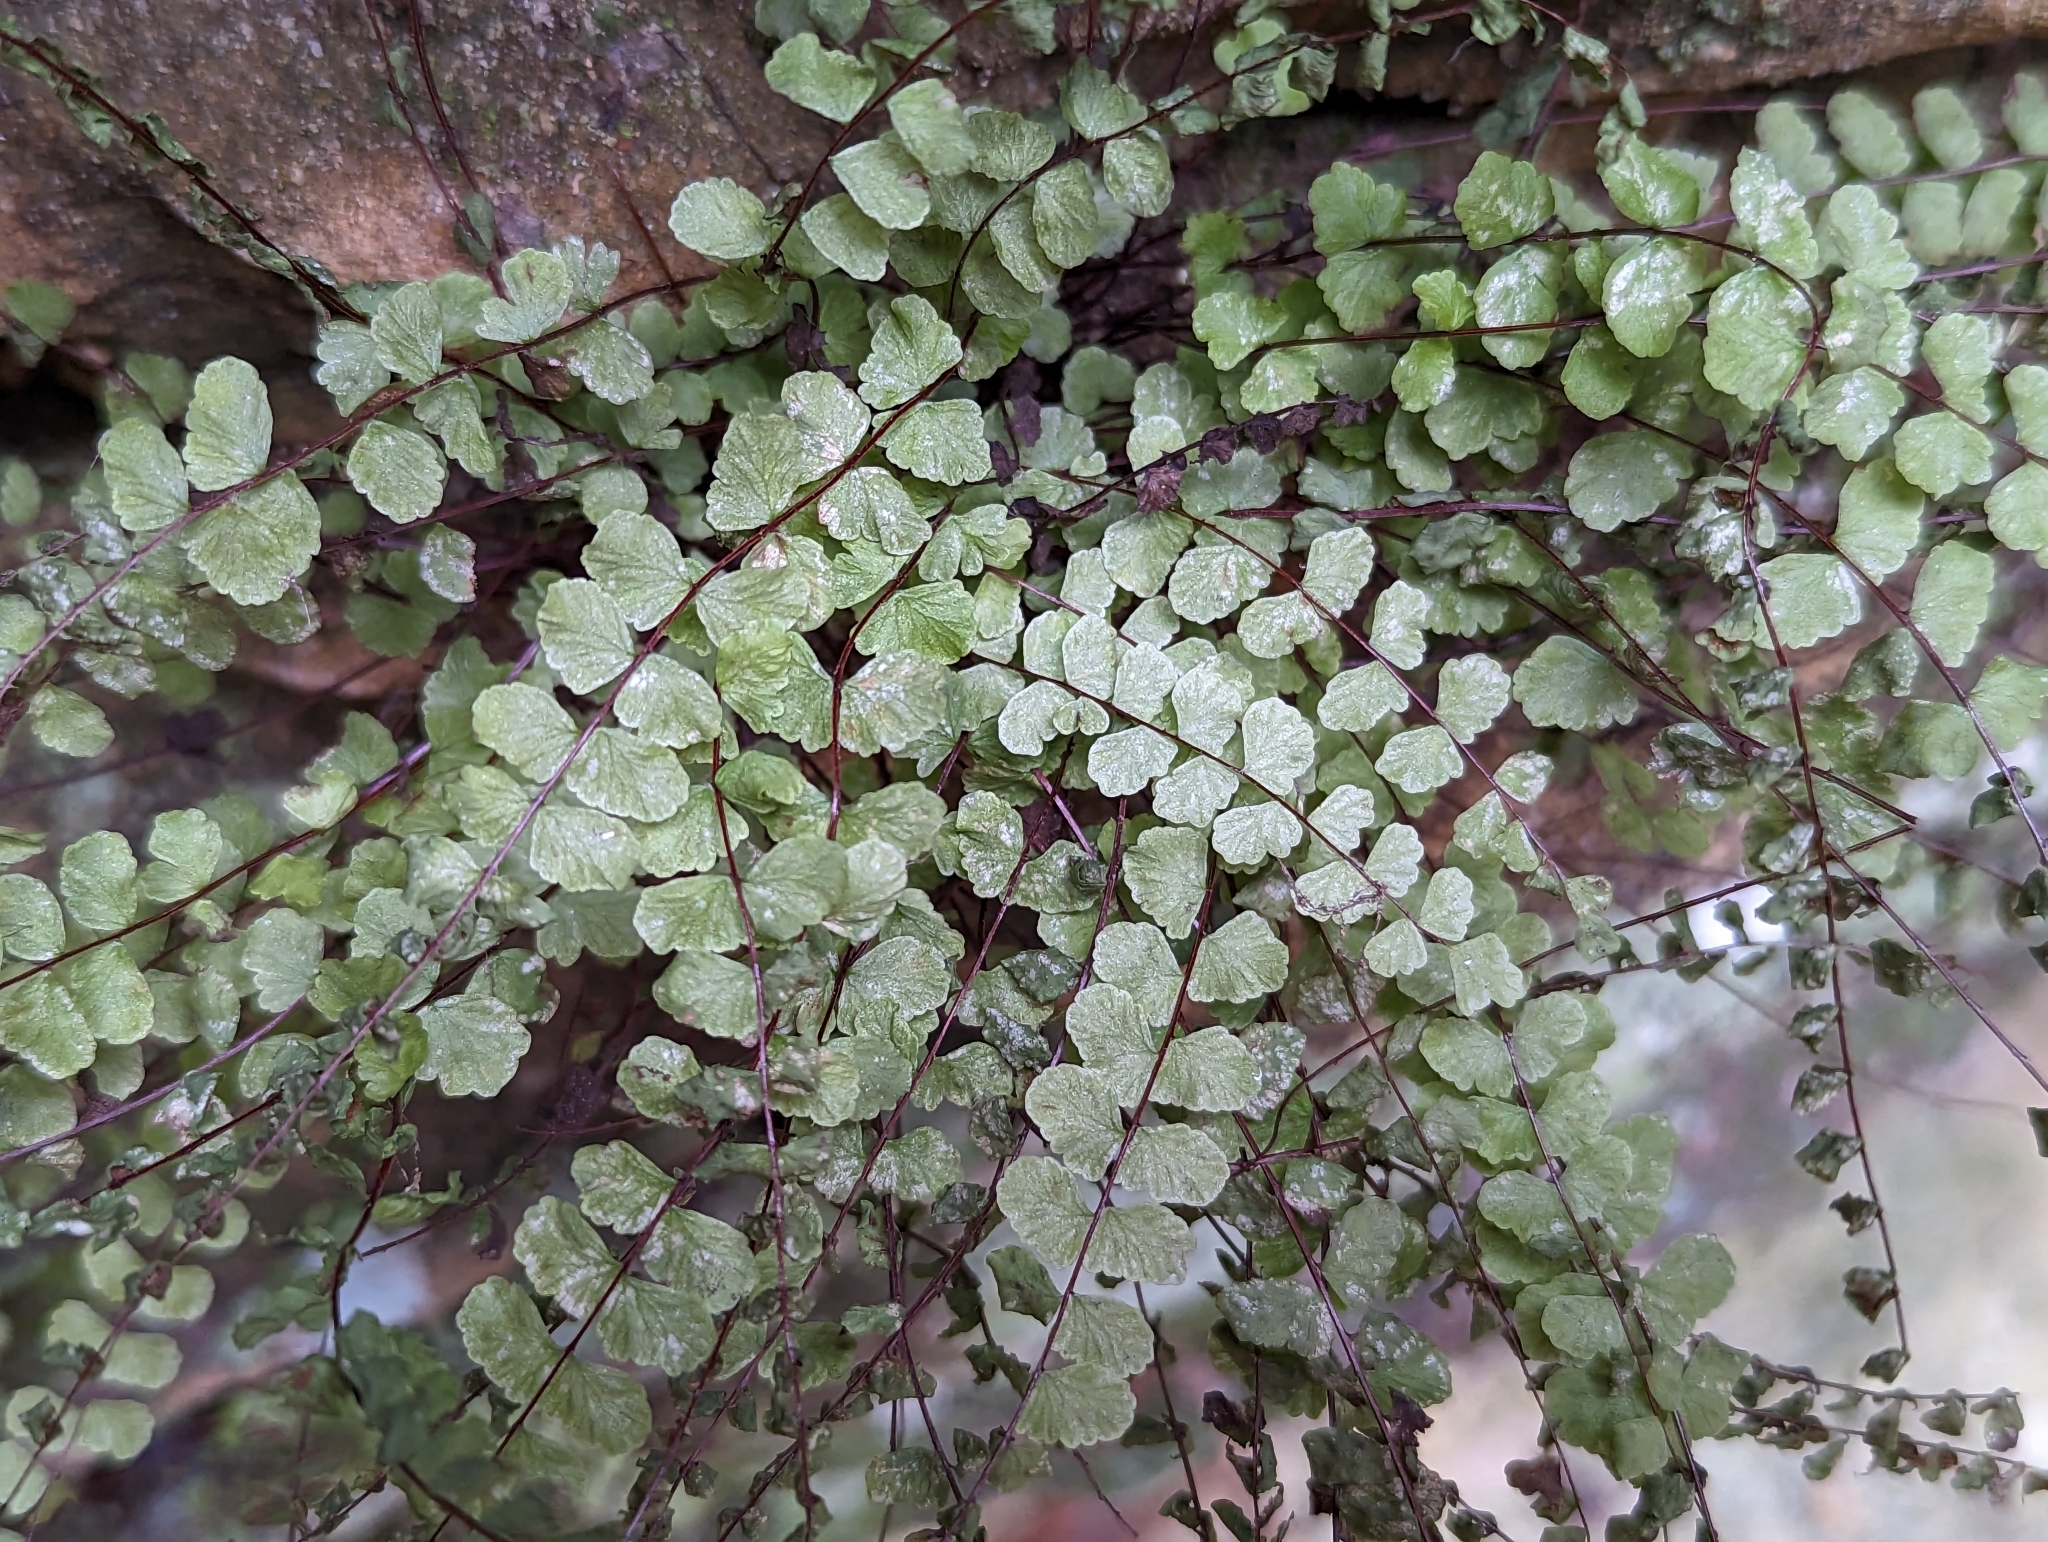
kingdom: Plantae
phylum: Tracheophyta
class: Polypodiopsida
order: Polypodiales
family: Aspleniaceae
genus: Asplenium
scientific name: Asplenium trichomanes
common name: Maidenhair spleenwort
